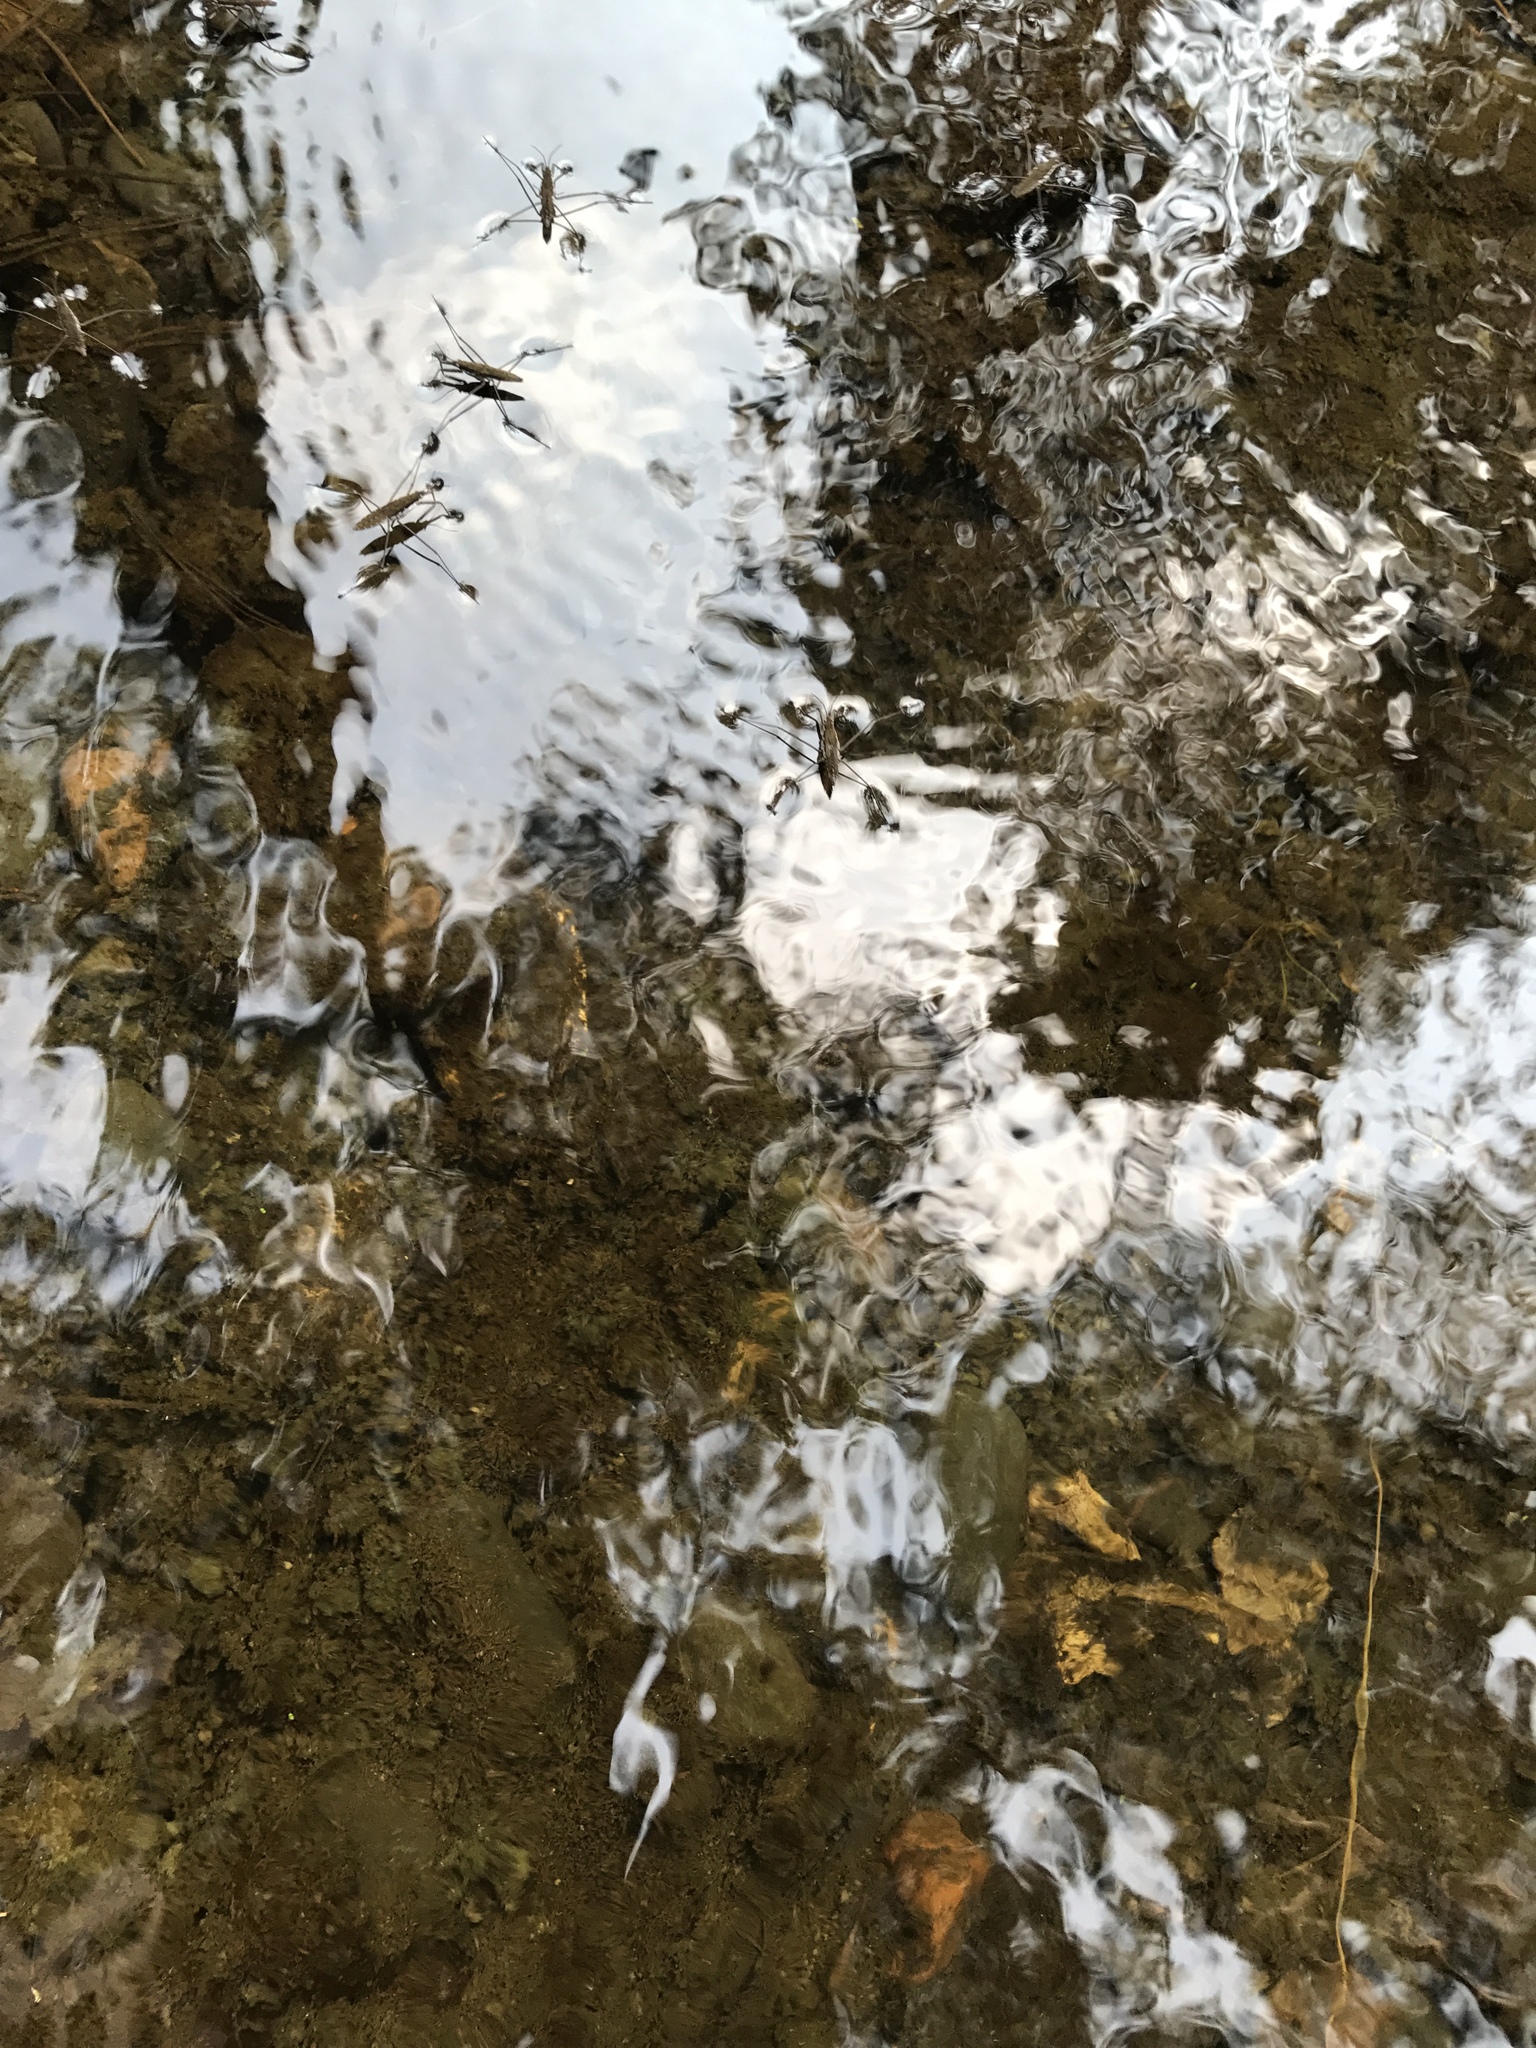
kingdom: Animalia
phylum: Arthropoda
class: Insecta
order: Hemiptera
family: Gerridae
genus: Aquarius
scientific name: Aquarius remigis
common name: Common water strider
